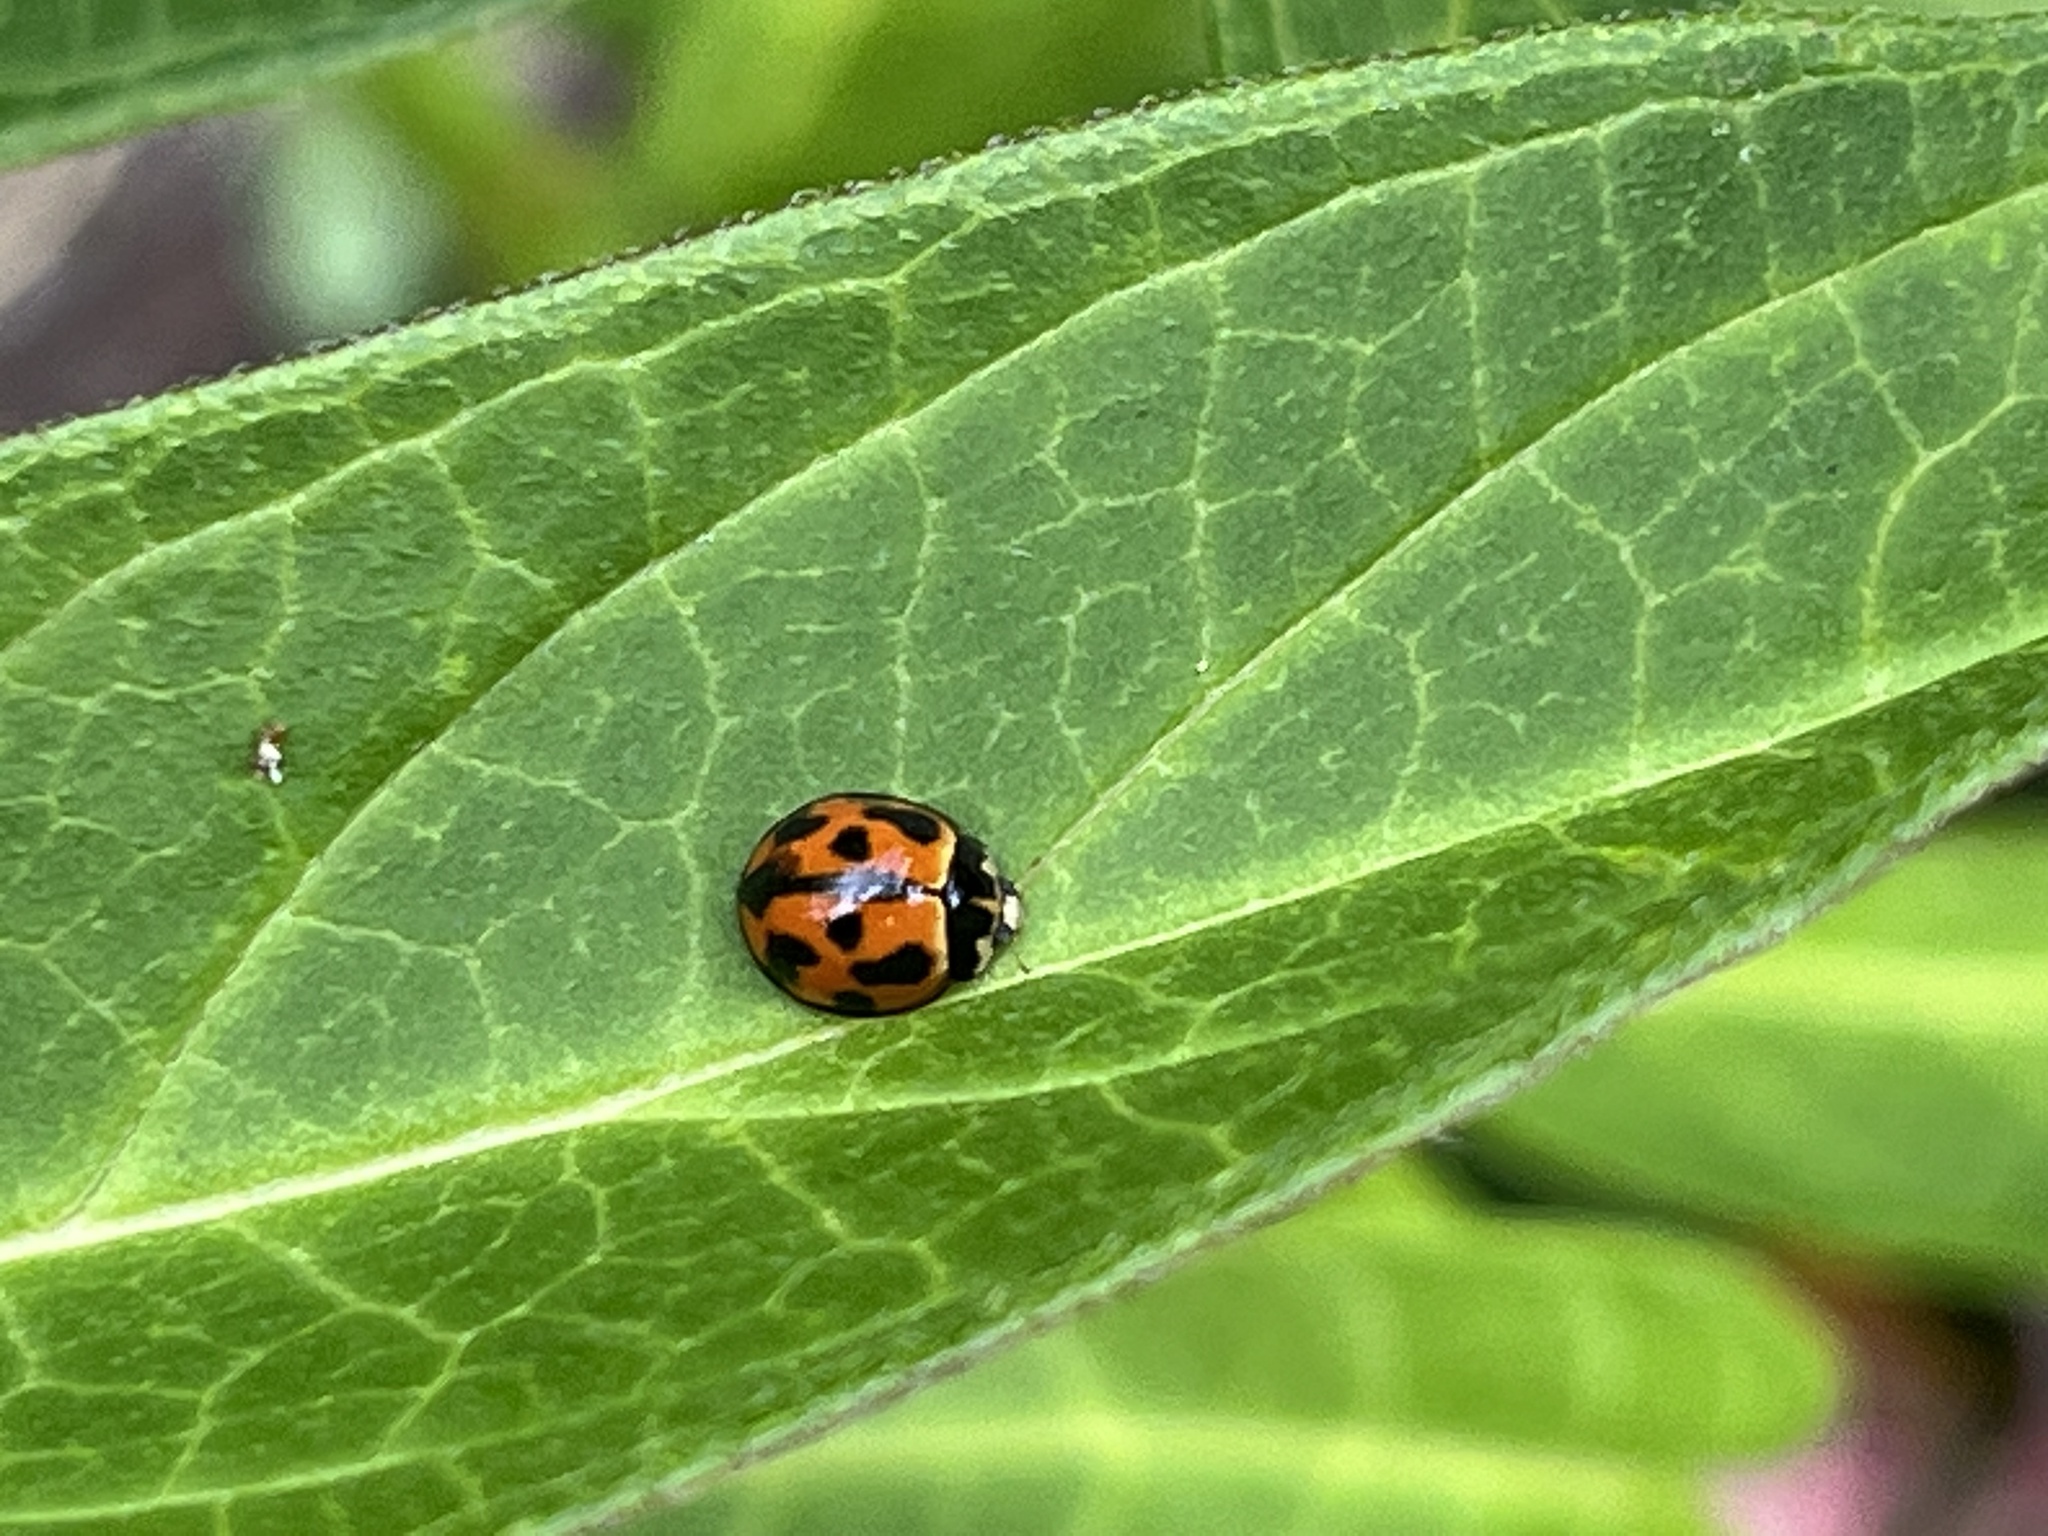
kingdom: Animalia
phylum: Arthropoda
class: Insecta
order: Coleoptera
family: Coccinellidae
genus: Coelophora
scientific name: Coelophora inaequalis
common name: Common australian lady beetle
